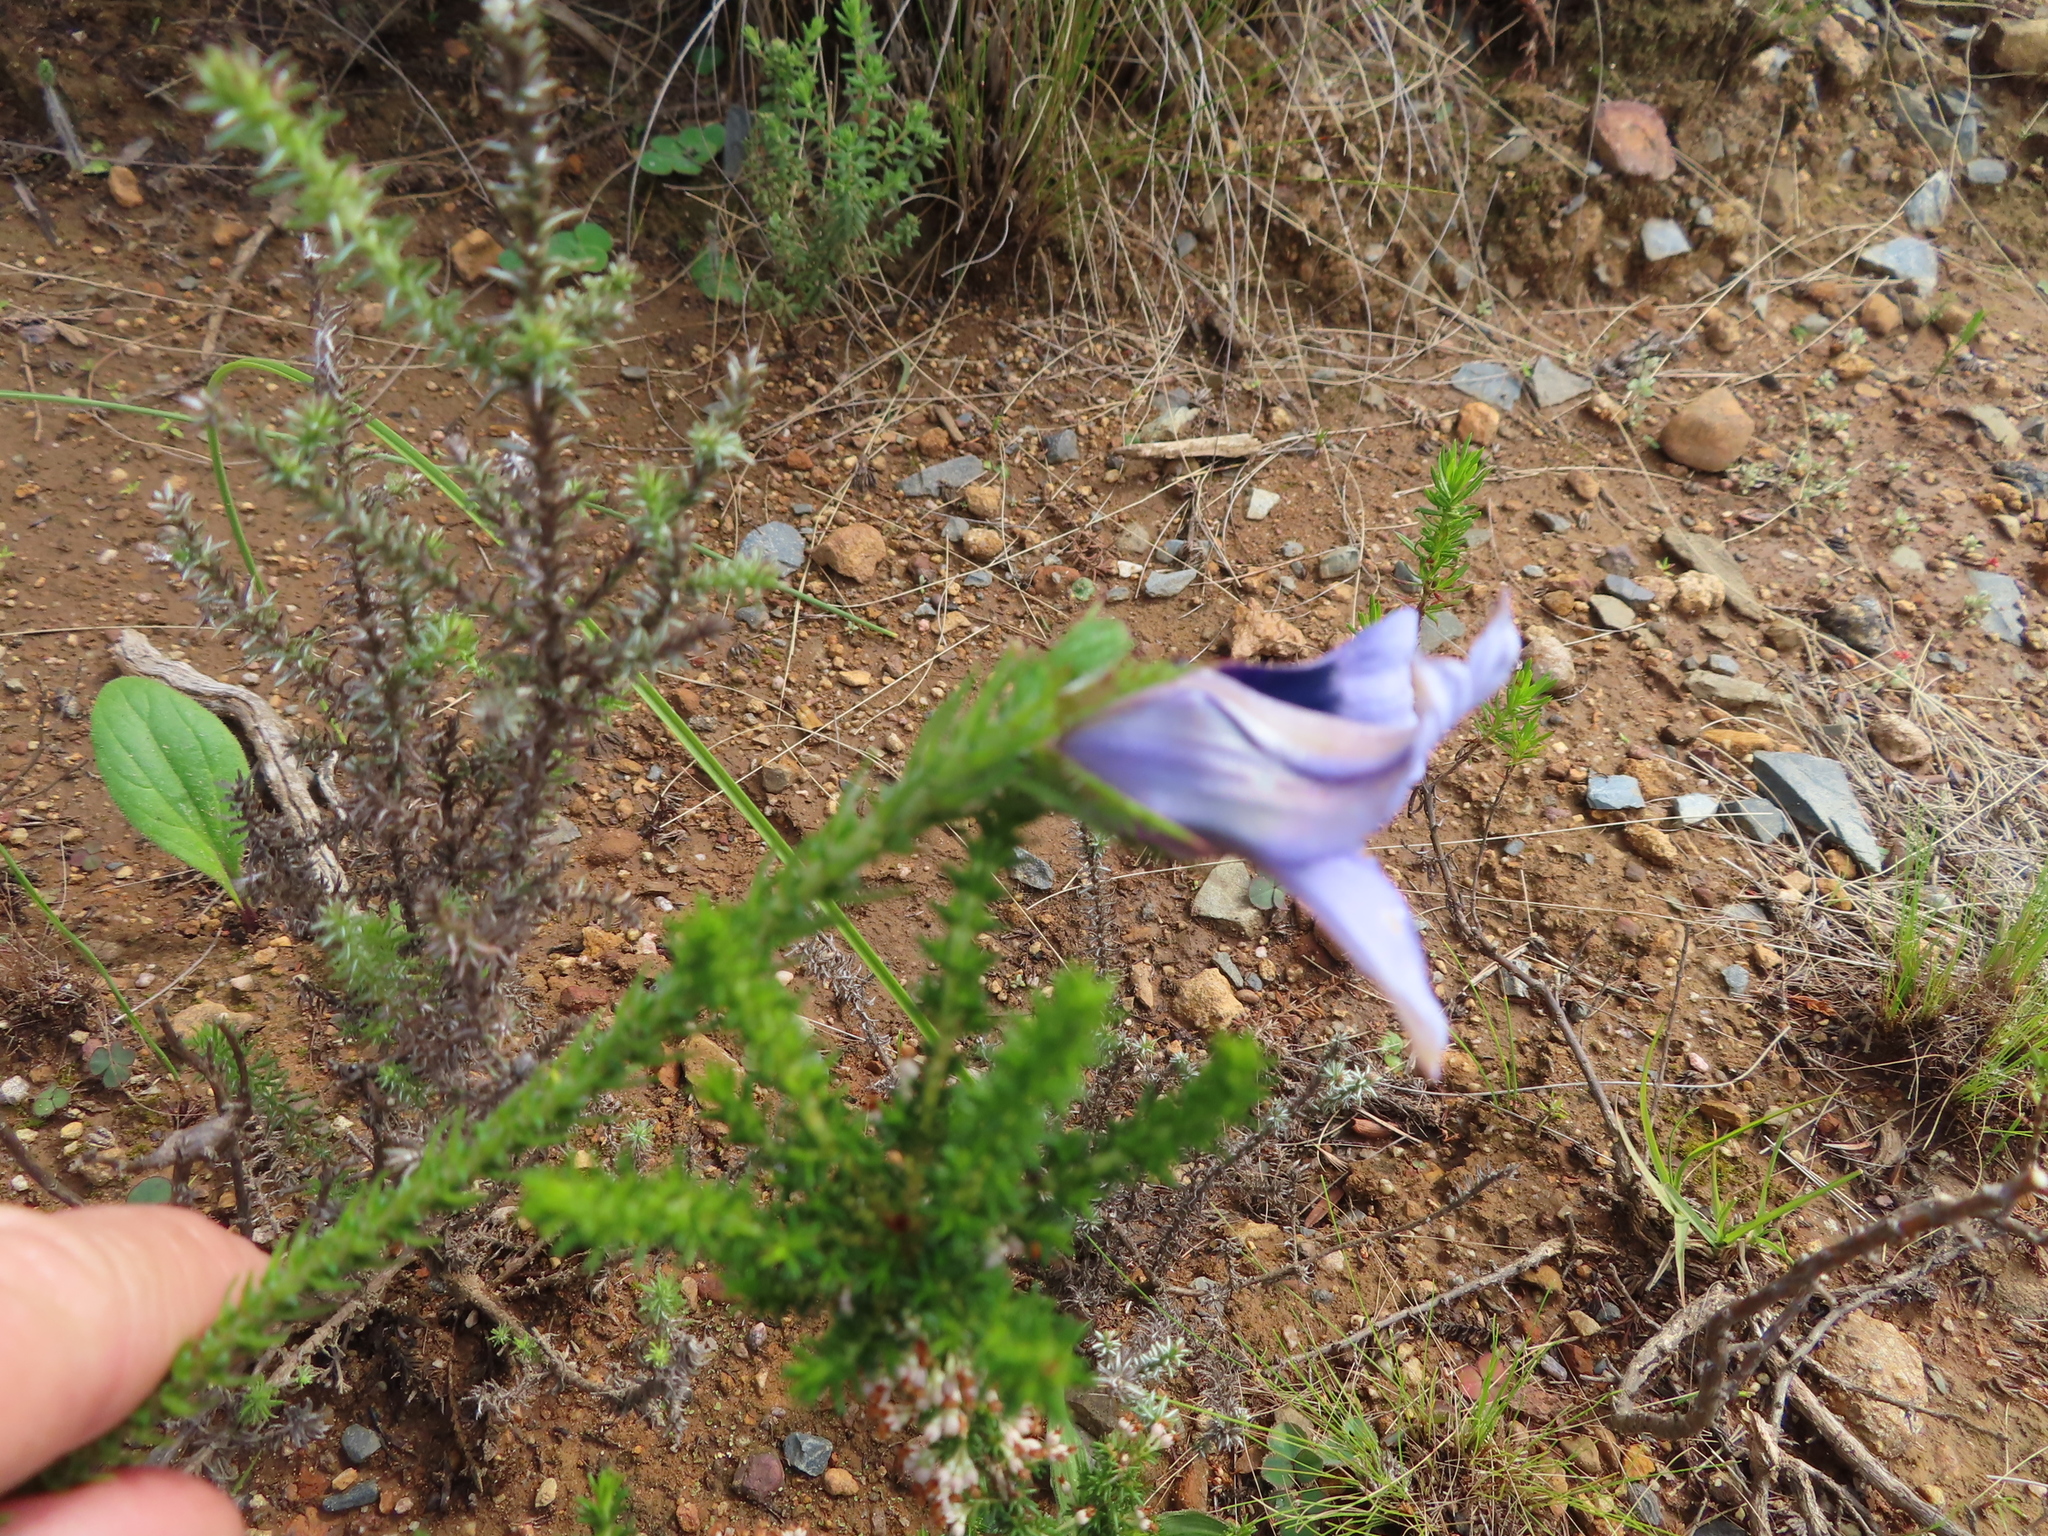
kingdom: Plantae
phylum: Tracheophyta
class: Magnoliopsida
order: Asterales
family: Campanulaceae
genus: Roella
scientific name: Roella ciliata
